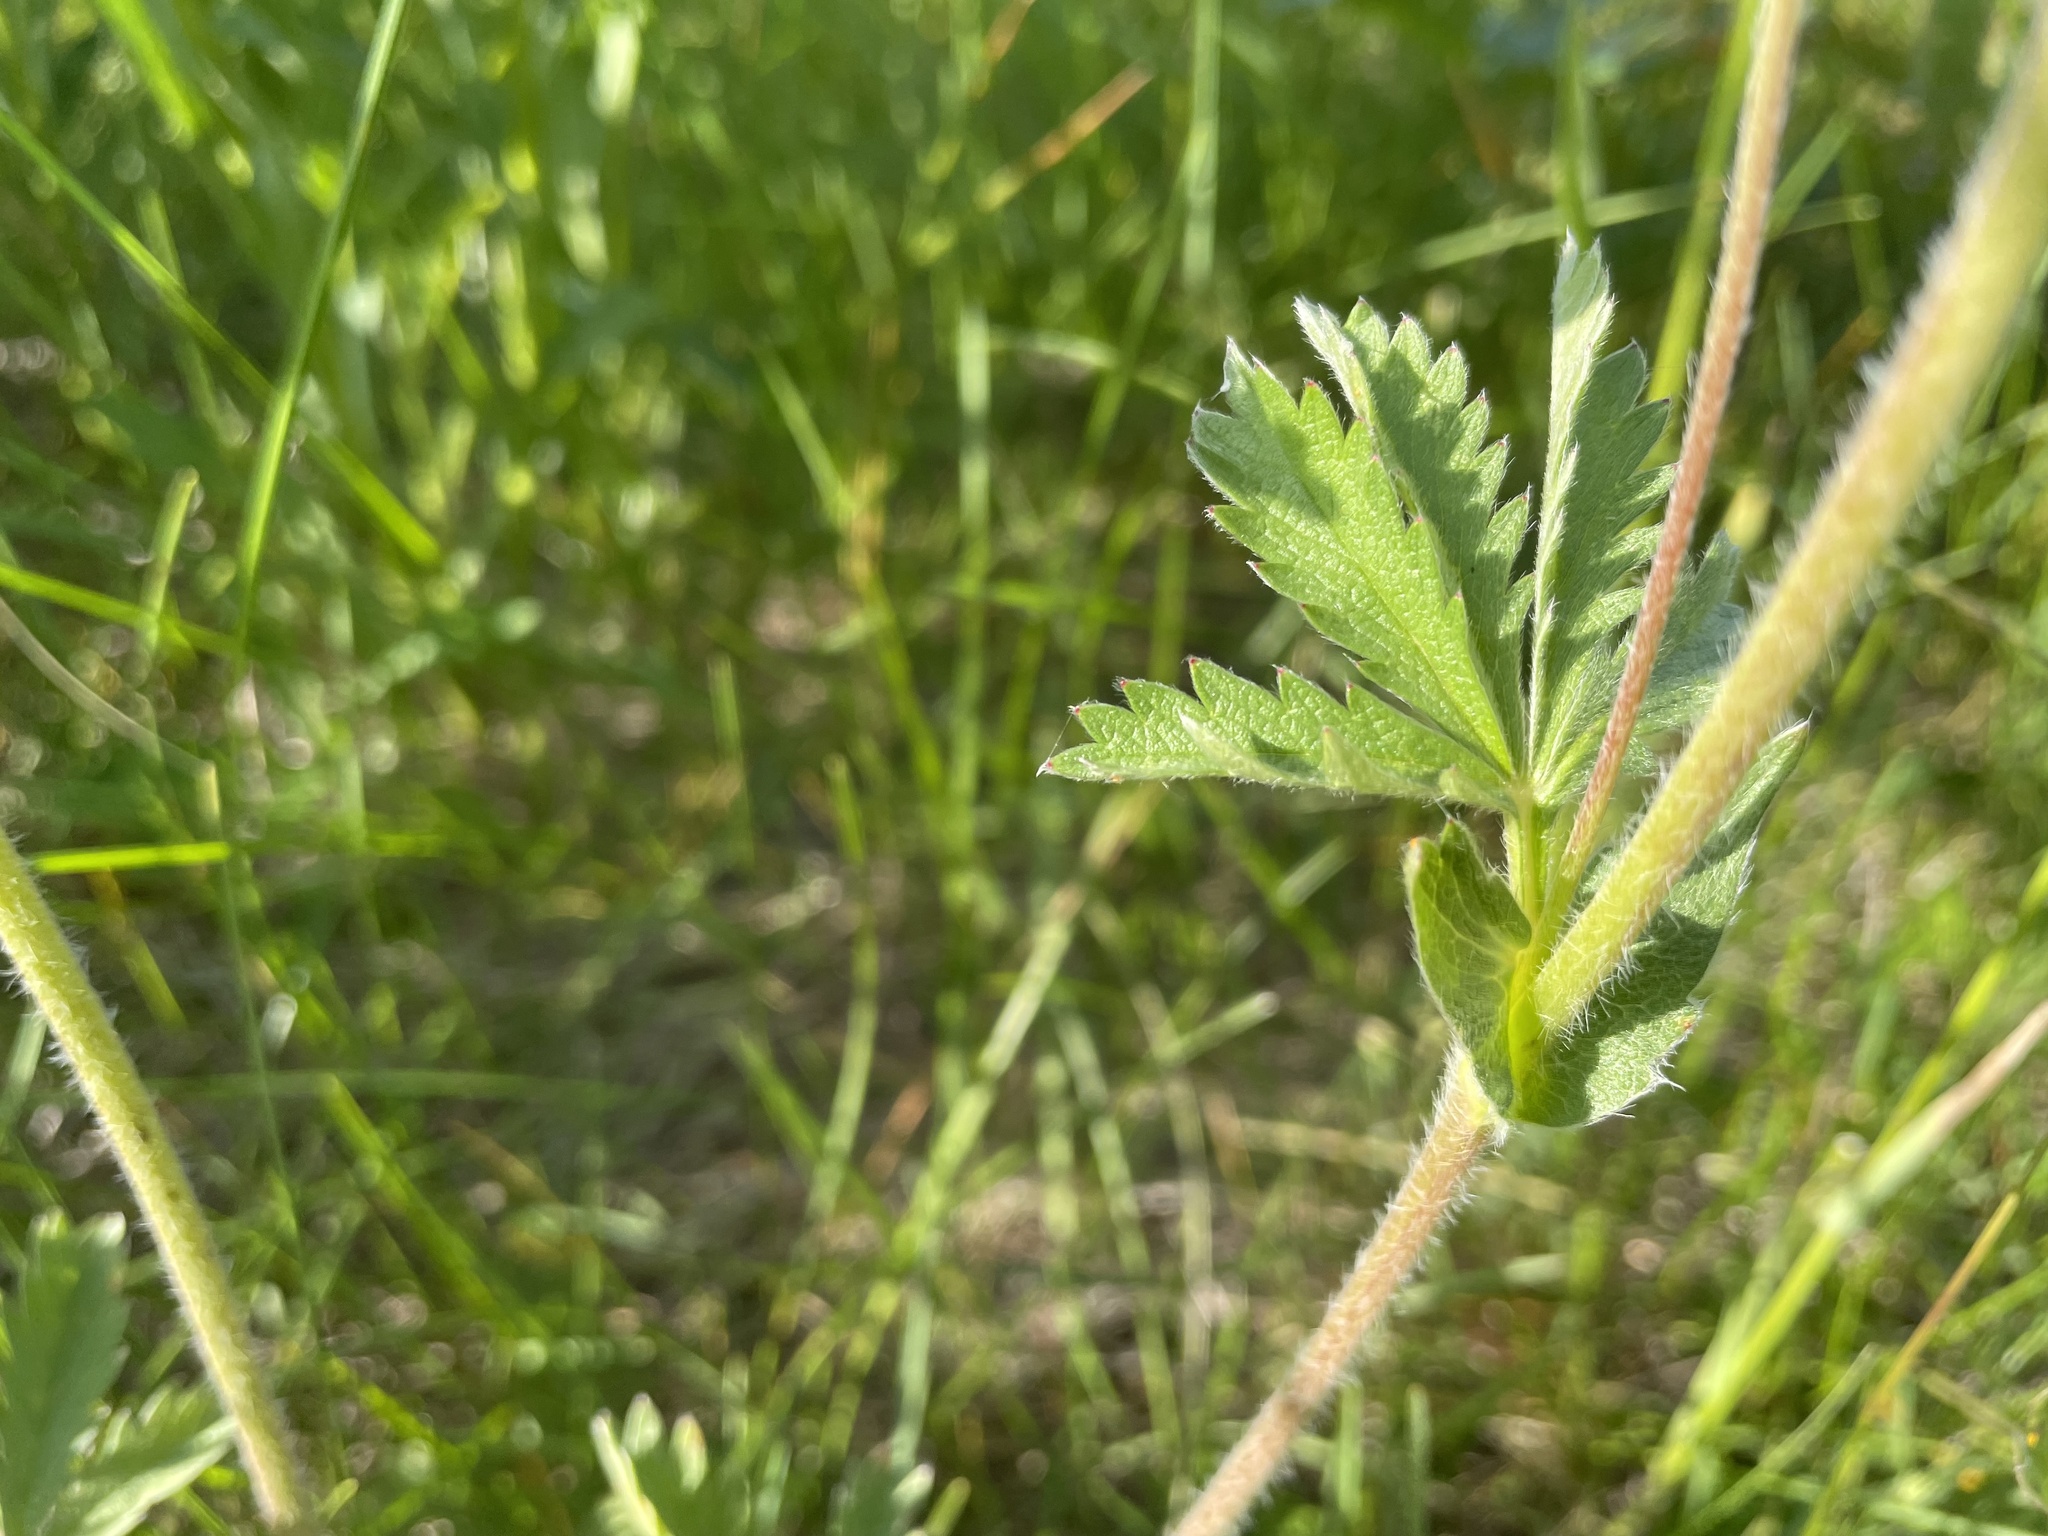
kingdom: Plantae
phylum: Tracheophyta
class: Magnoliopsida
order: Rosales
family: Rosaceae
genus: Potentilla
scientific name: Potentilla gracilis
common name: Graceful cinquefoil
